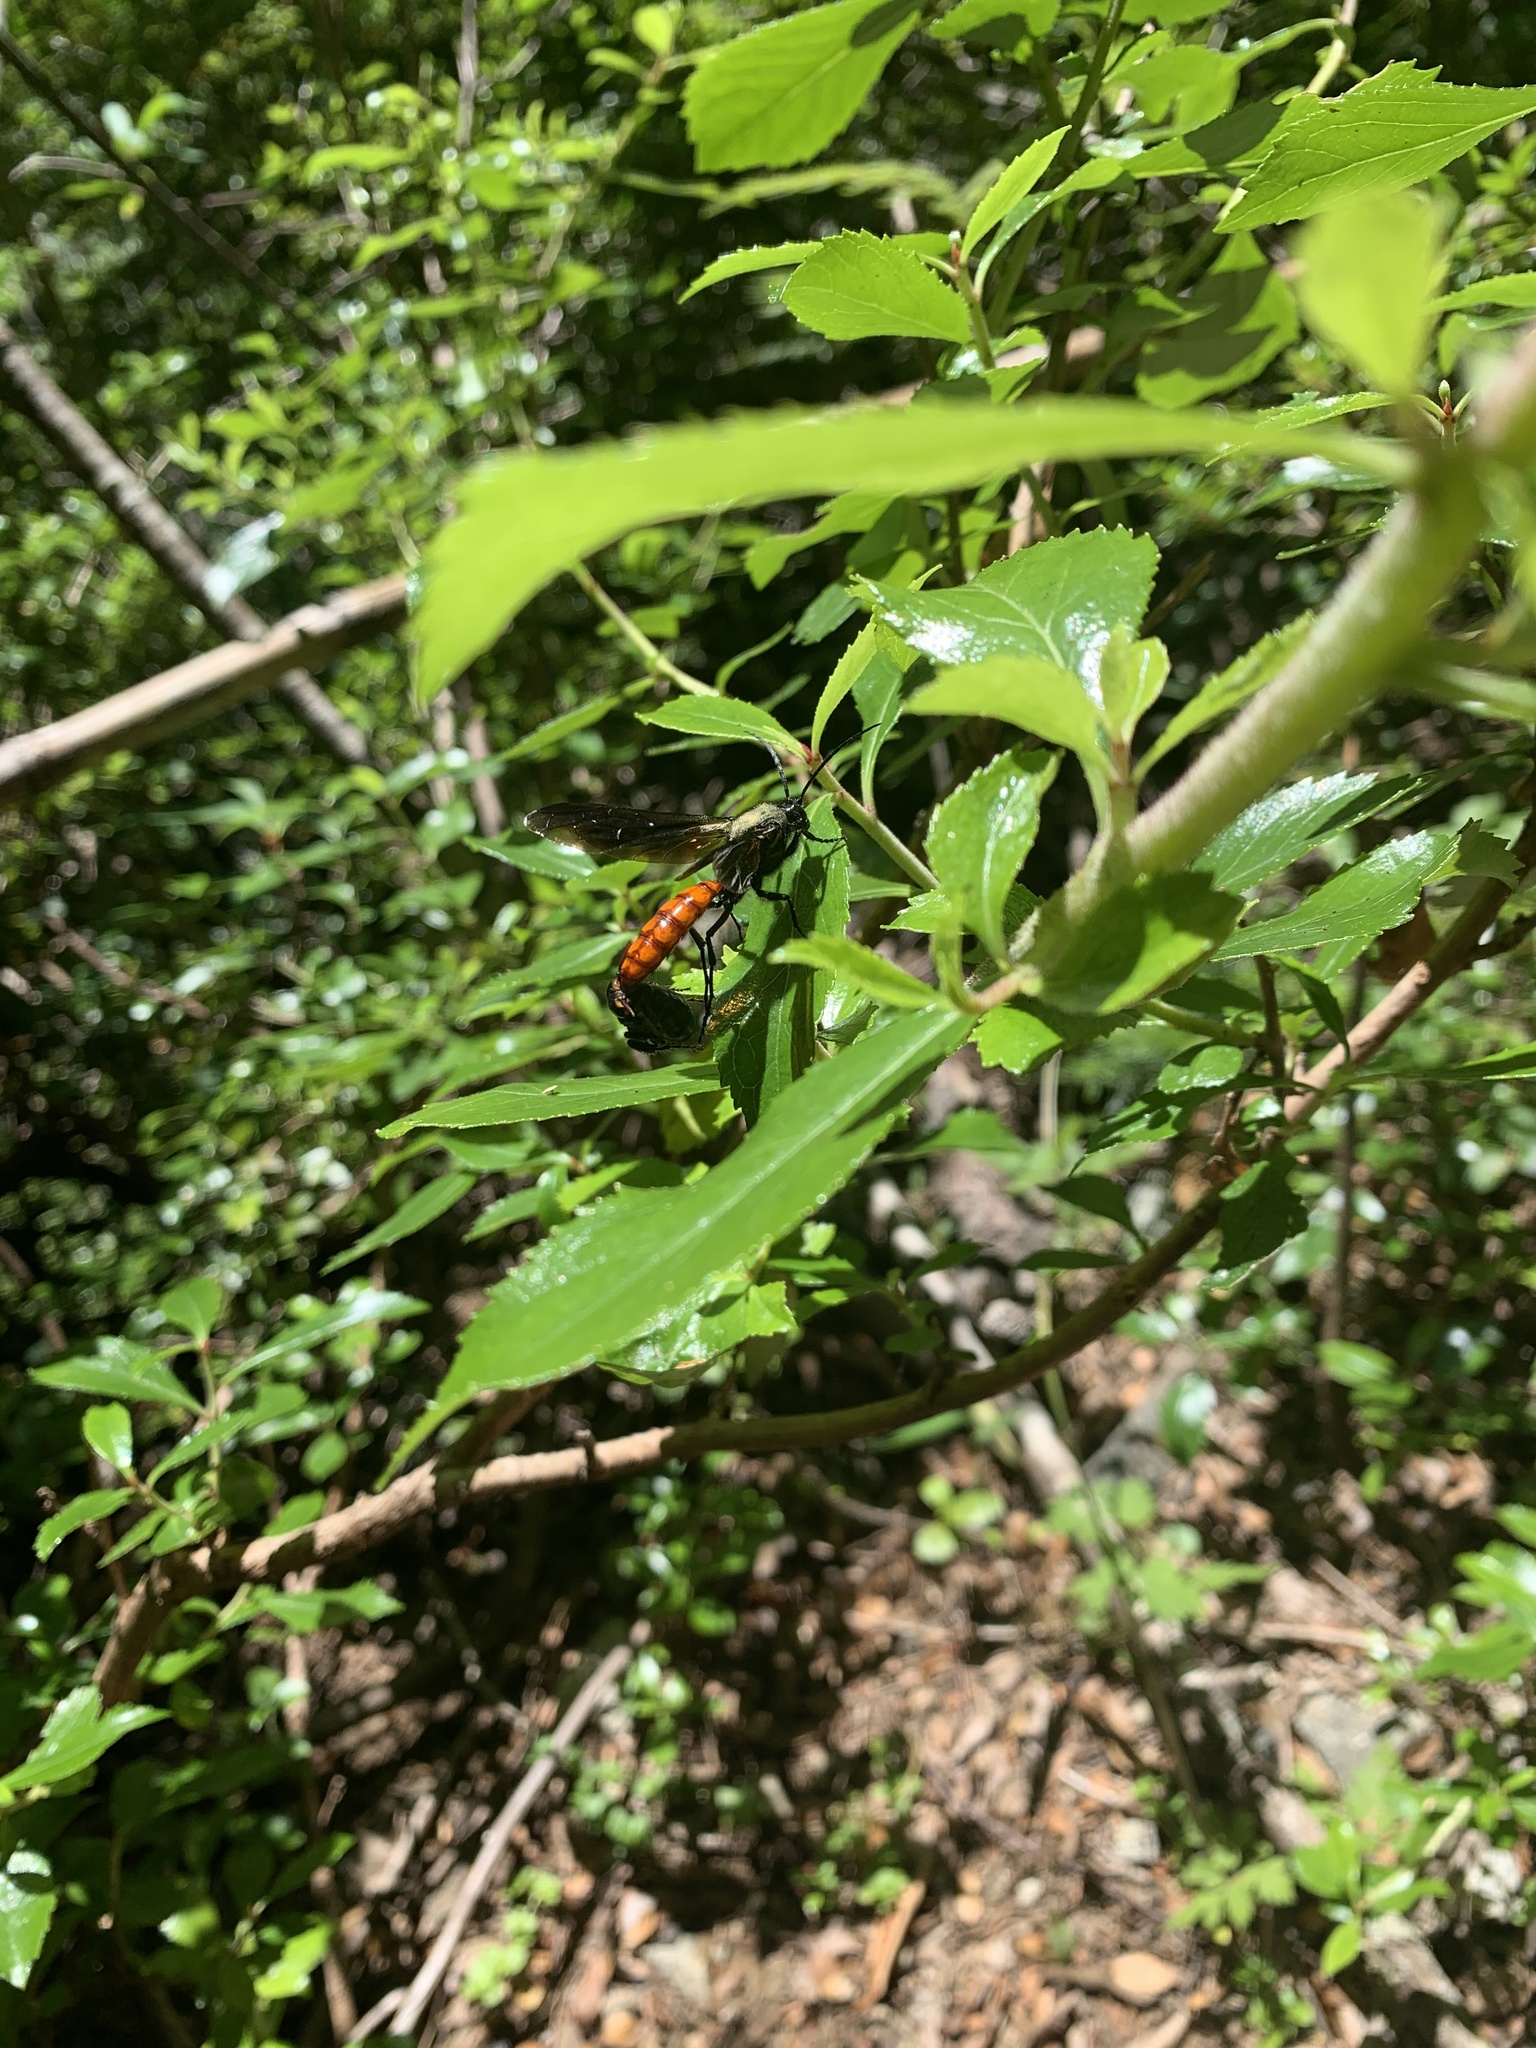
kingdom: Animalia
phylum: Arthropoda
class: Insecta
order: Hymenoptera
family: Tiphiidae
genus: Elaphroptera
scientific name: Elaphroptera
